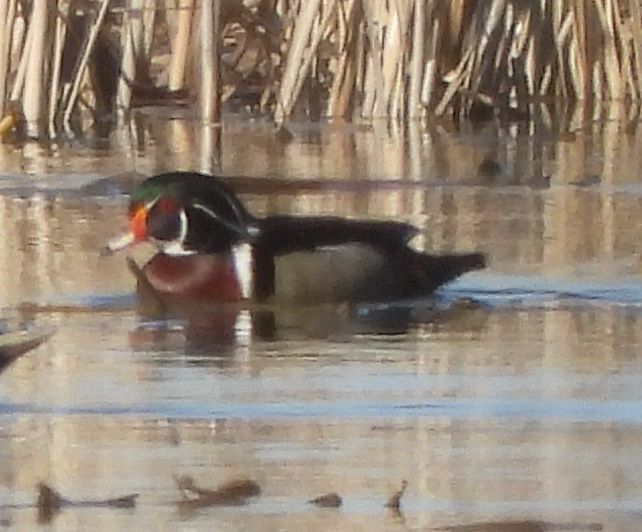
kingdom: Animalia
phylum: Chordata
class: Aves
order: Anseriformes
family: Anatidae
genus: Aix
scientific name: Aix sponsa
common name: Wood duck
